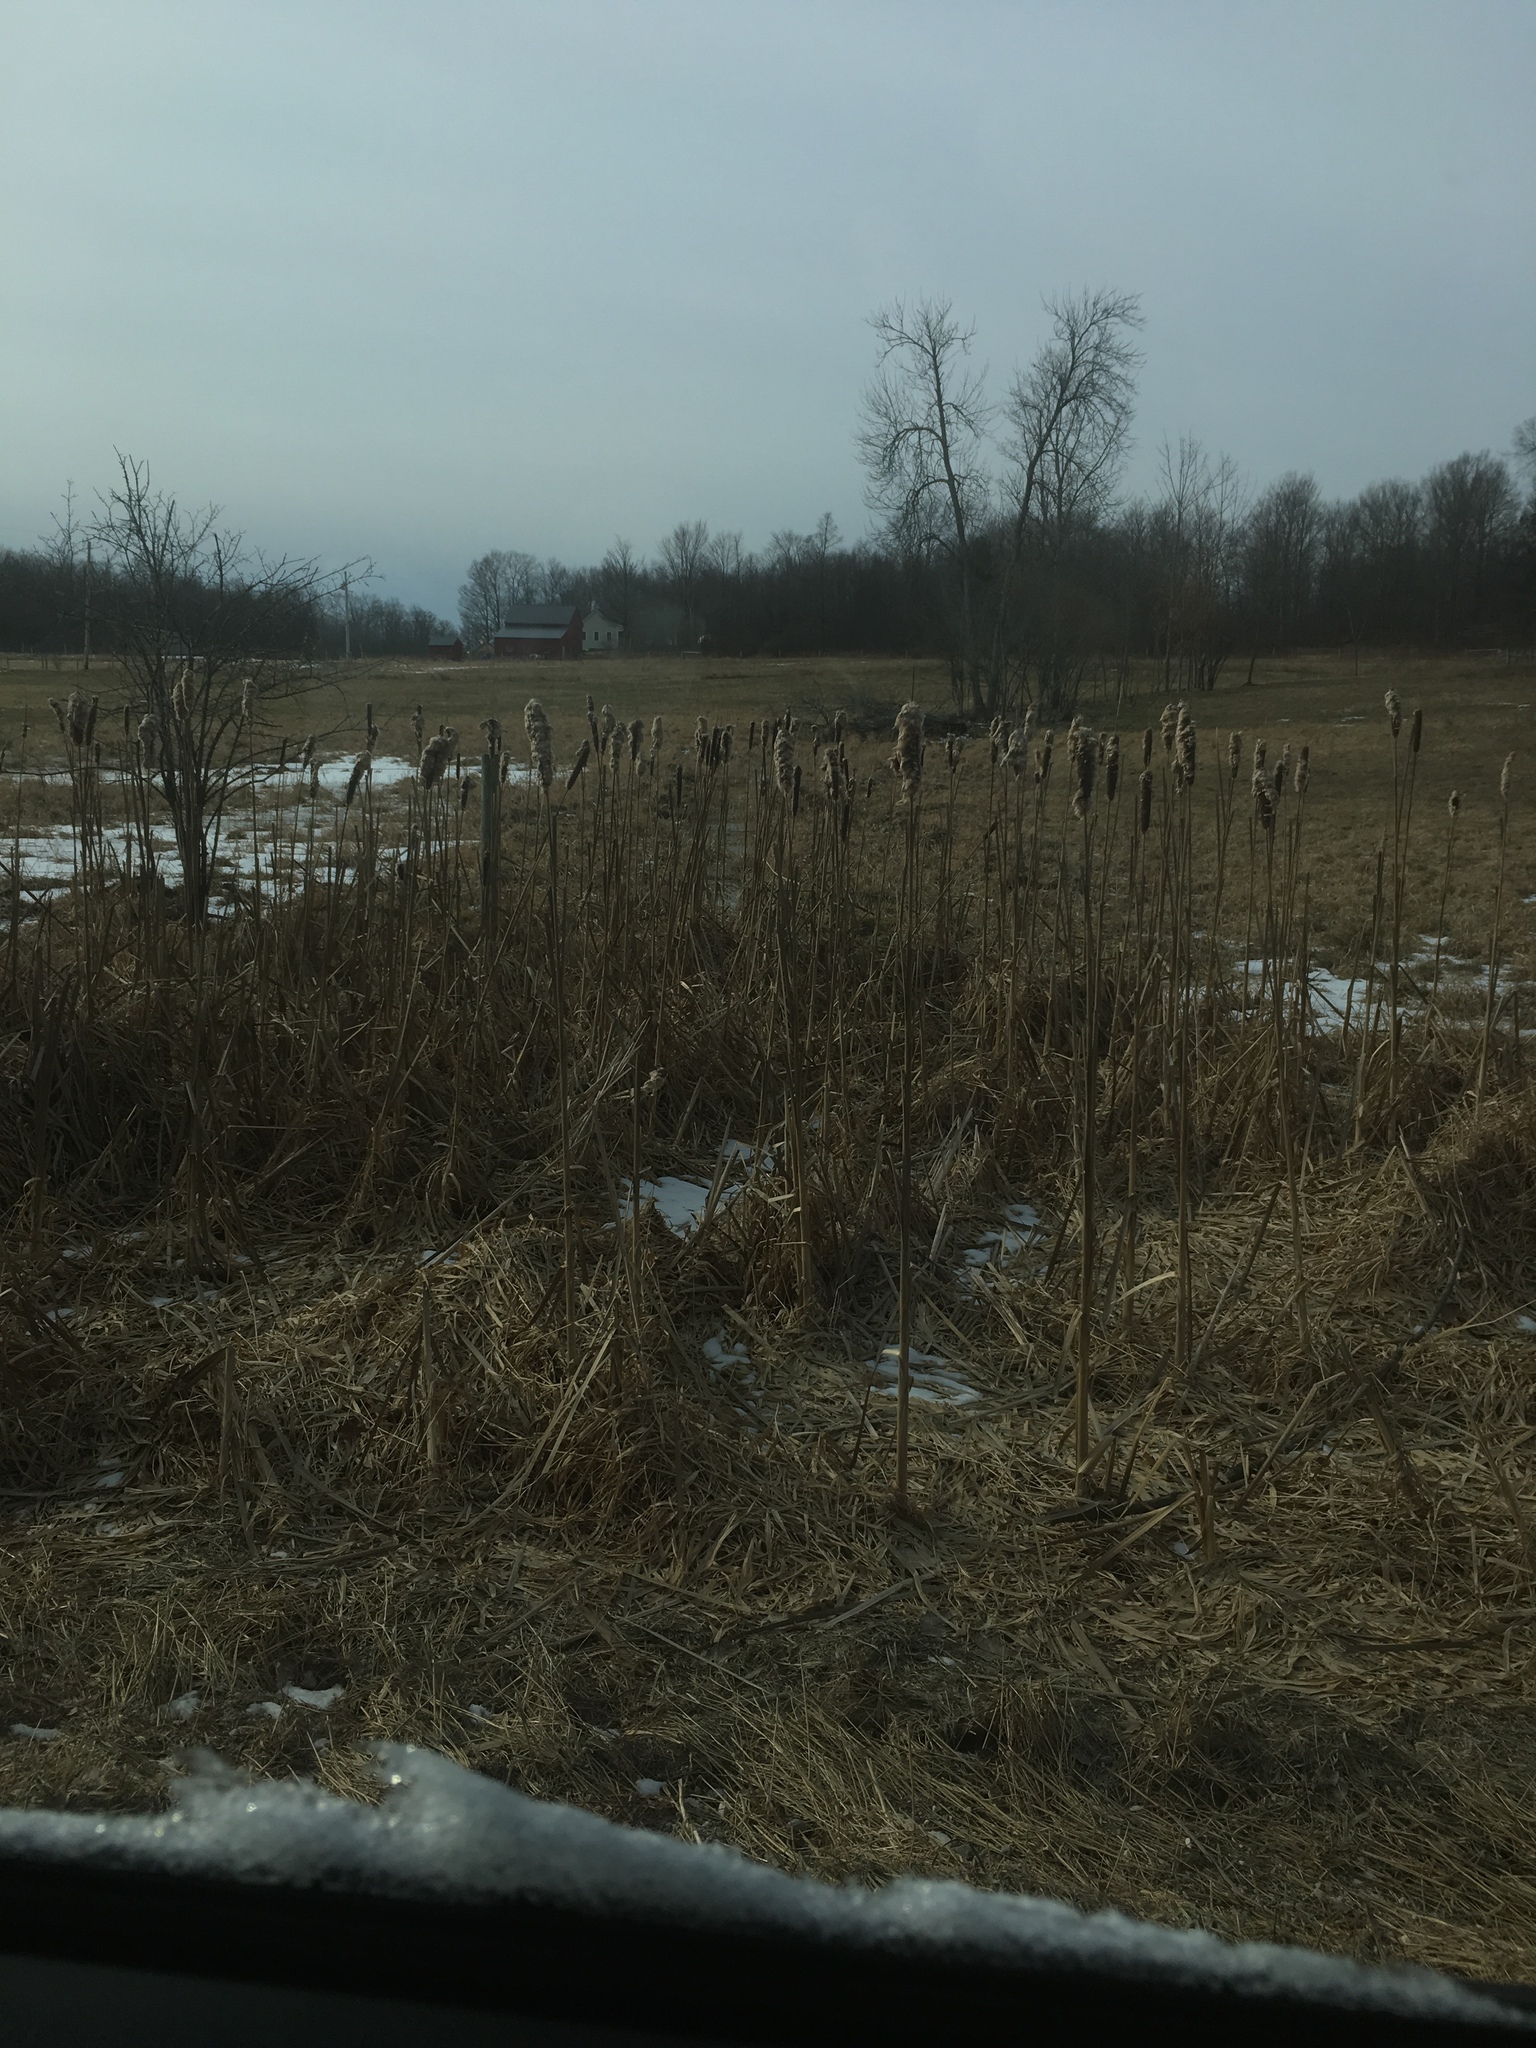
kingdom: Plantae
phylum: Tracheophyta
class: Liliopsida
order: Poales
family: Typhaceae
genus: Typha
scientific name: Typha
